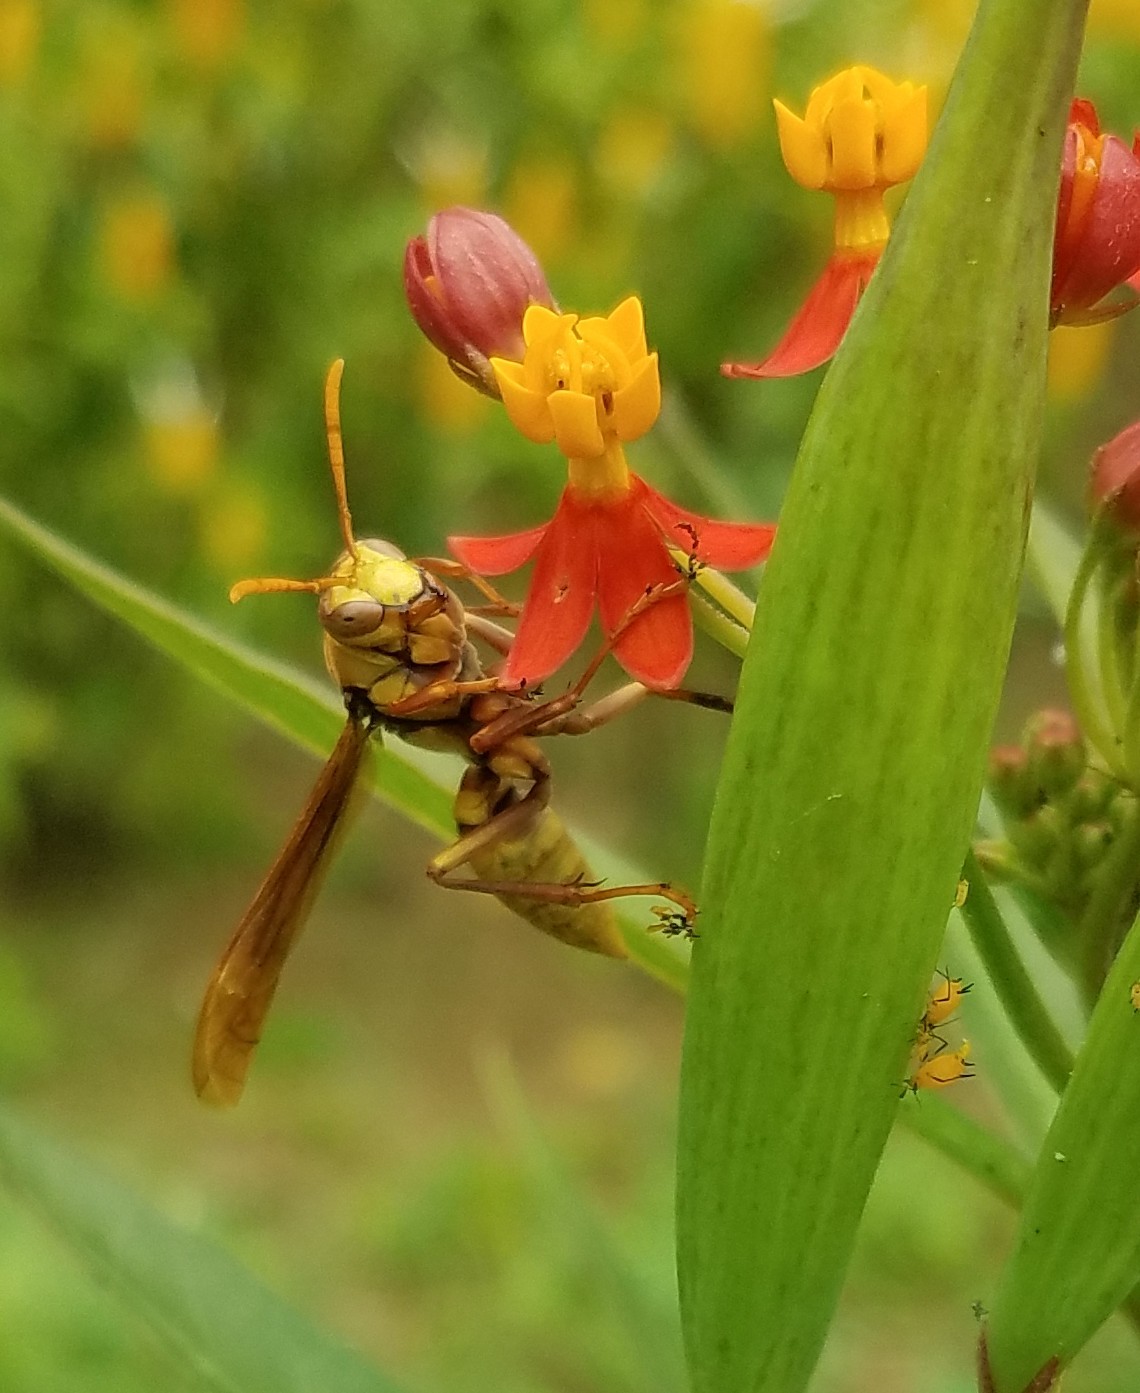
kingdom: Animalia
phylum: Arthropoda
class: Insecta
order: Hymenoptera
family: Eumenidae
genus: Polistes
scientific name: Polistes major
